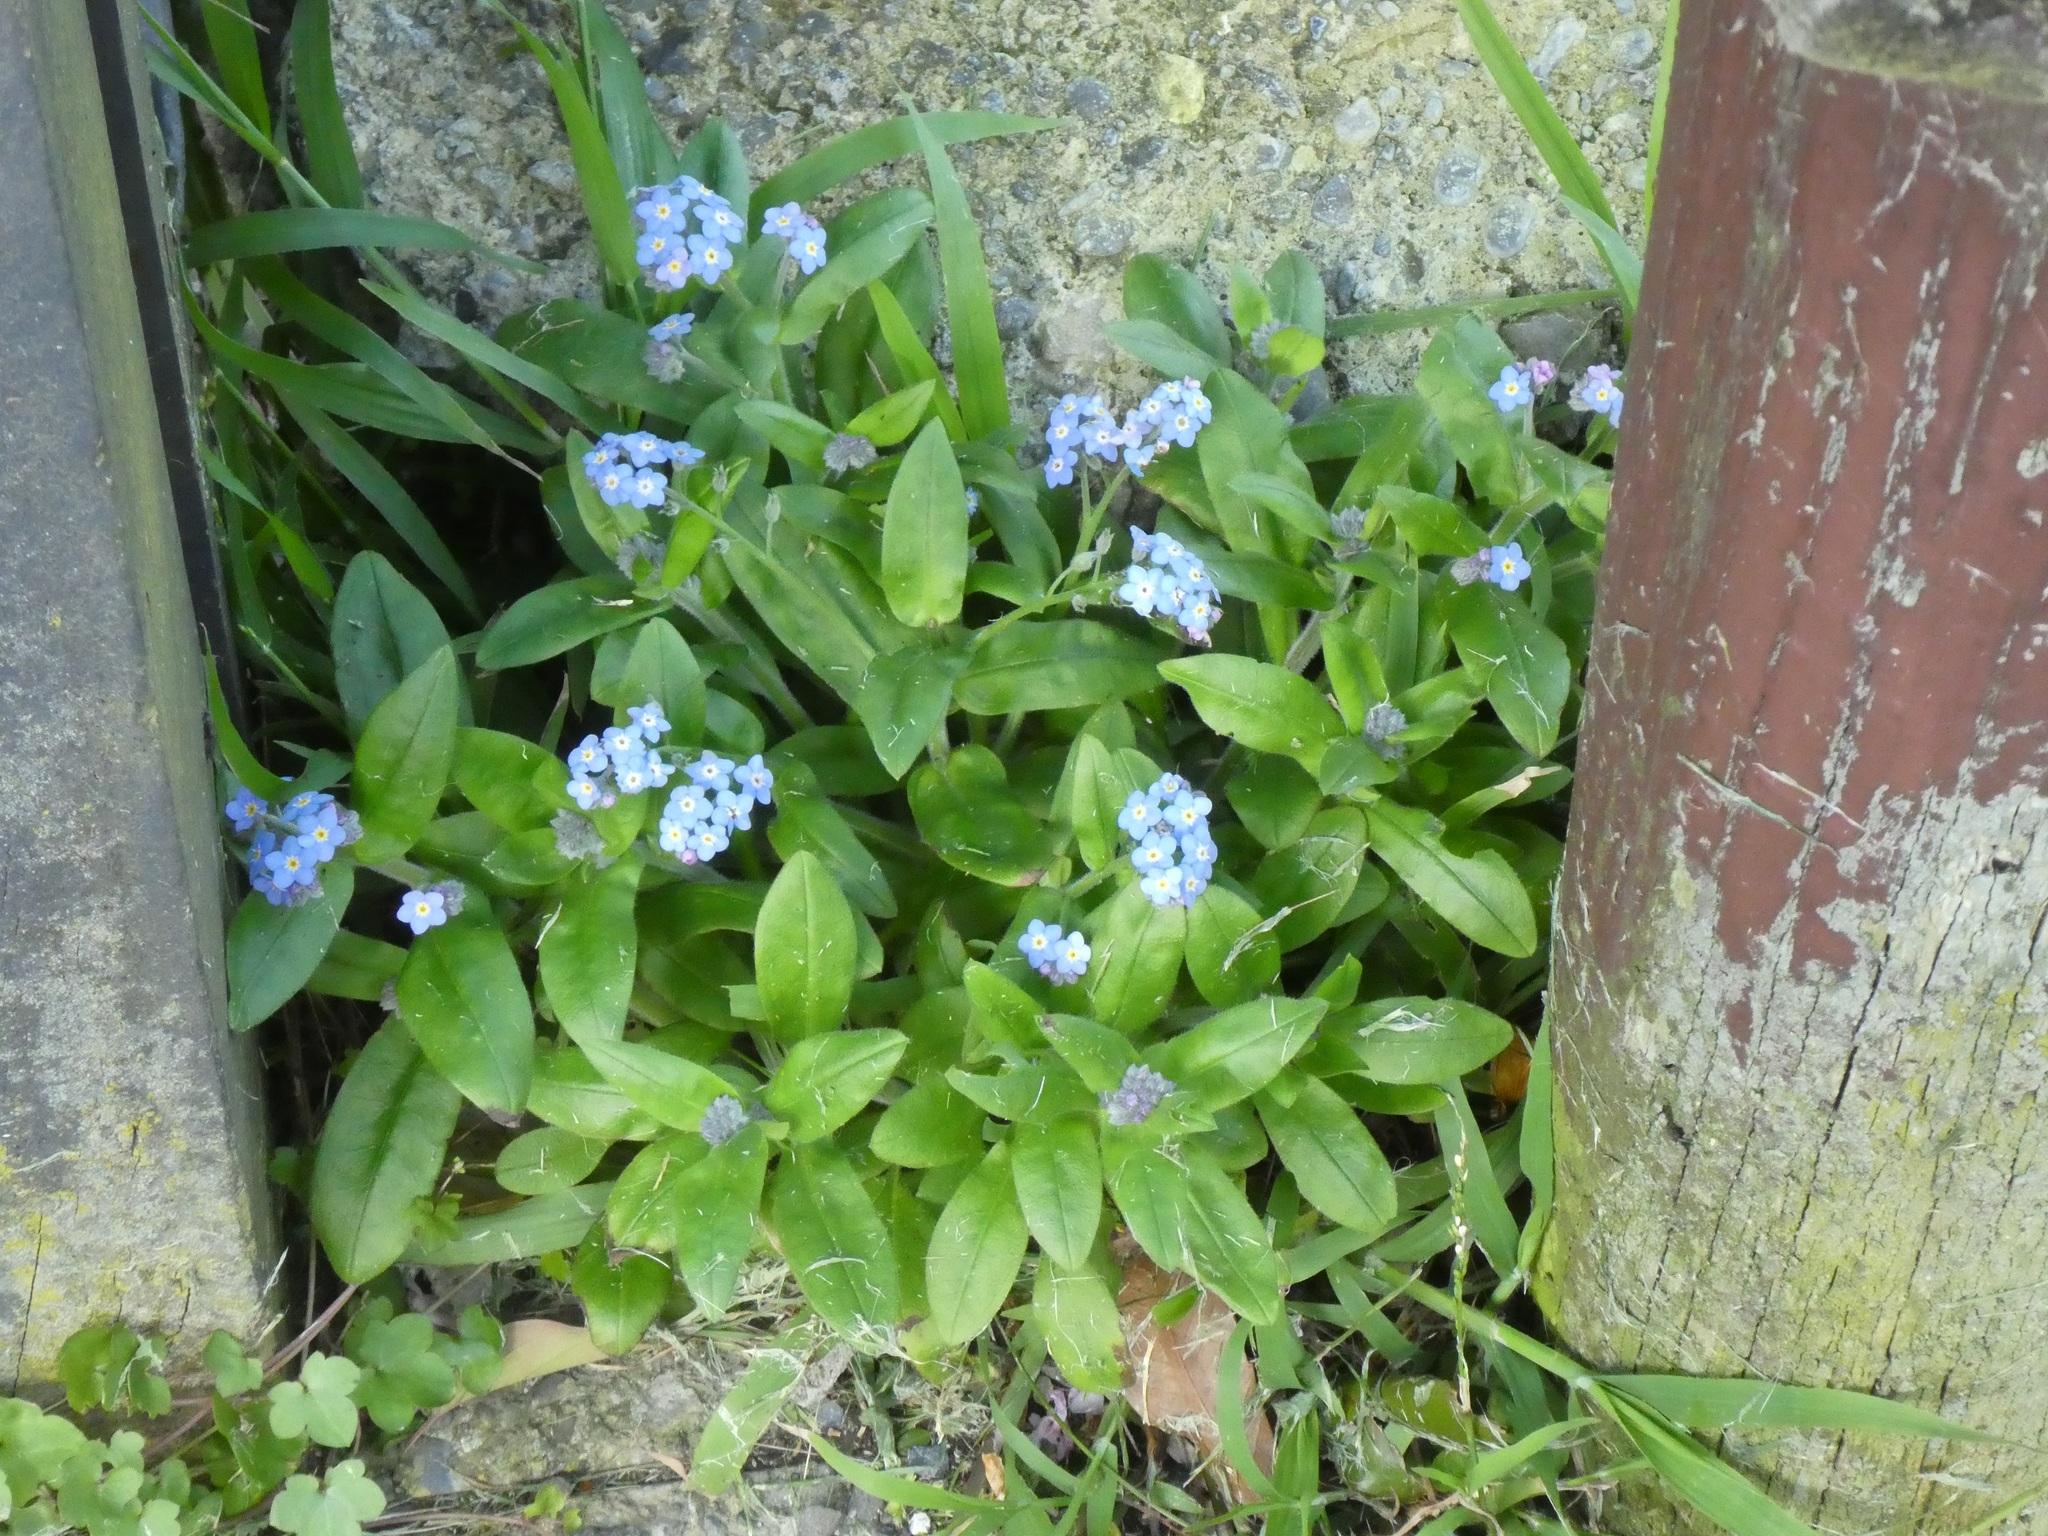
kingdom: Plantae
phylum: Tracheophyta
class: Magnoliopsida
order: Boraginales
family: Boraginaceae
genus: Myosotis
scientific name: Myosotis sylvatica
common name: Wood forget-me-not
